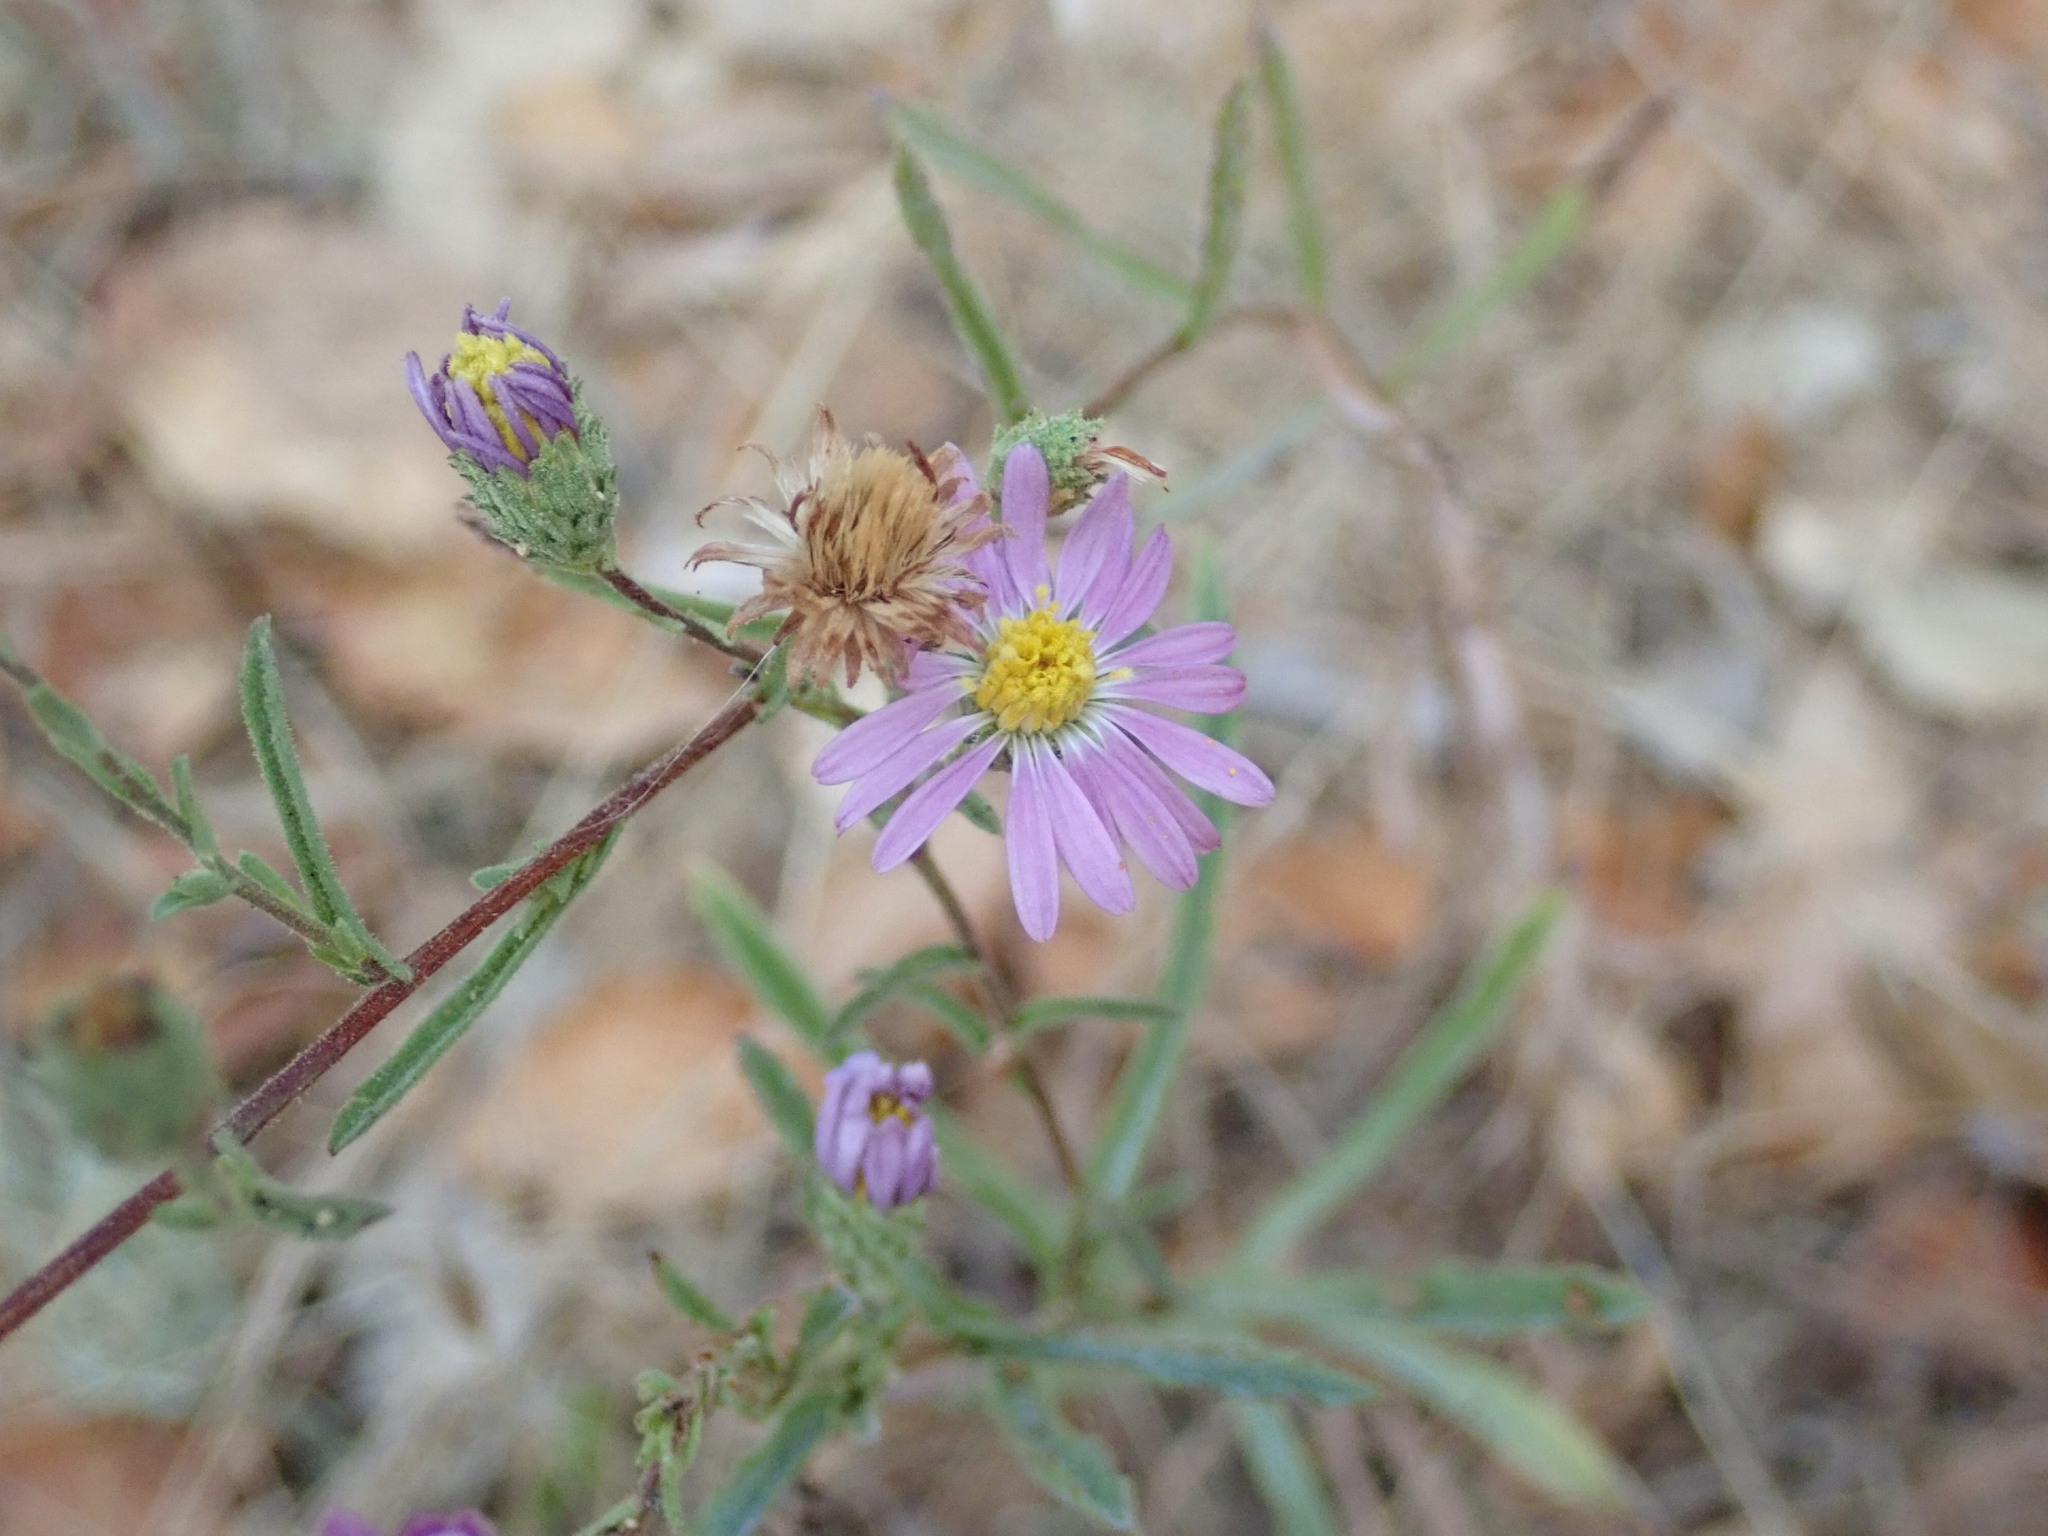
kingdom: Plantae
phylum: Tracheophyta
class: Magnoliopsida
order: Asterales
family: Asteraceae
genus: Corethrogyne
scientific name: Corethrogyne filaginifolia
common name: Sand-aster
